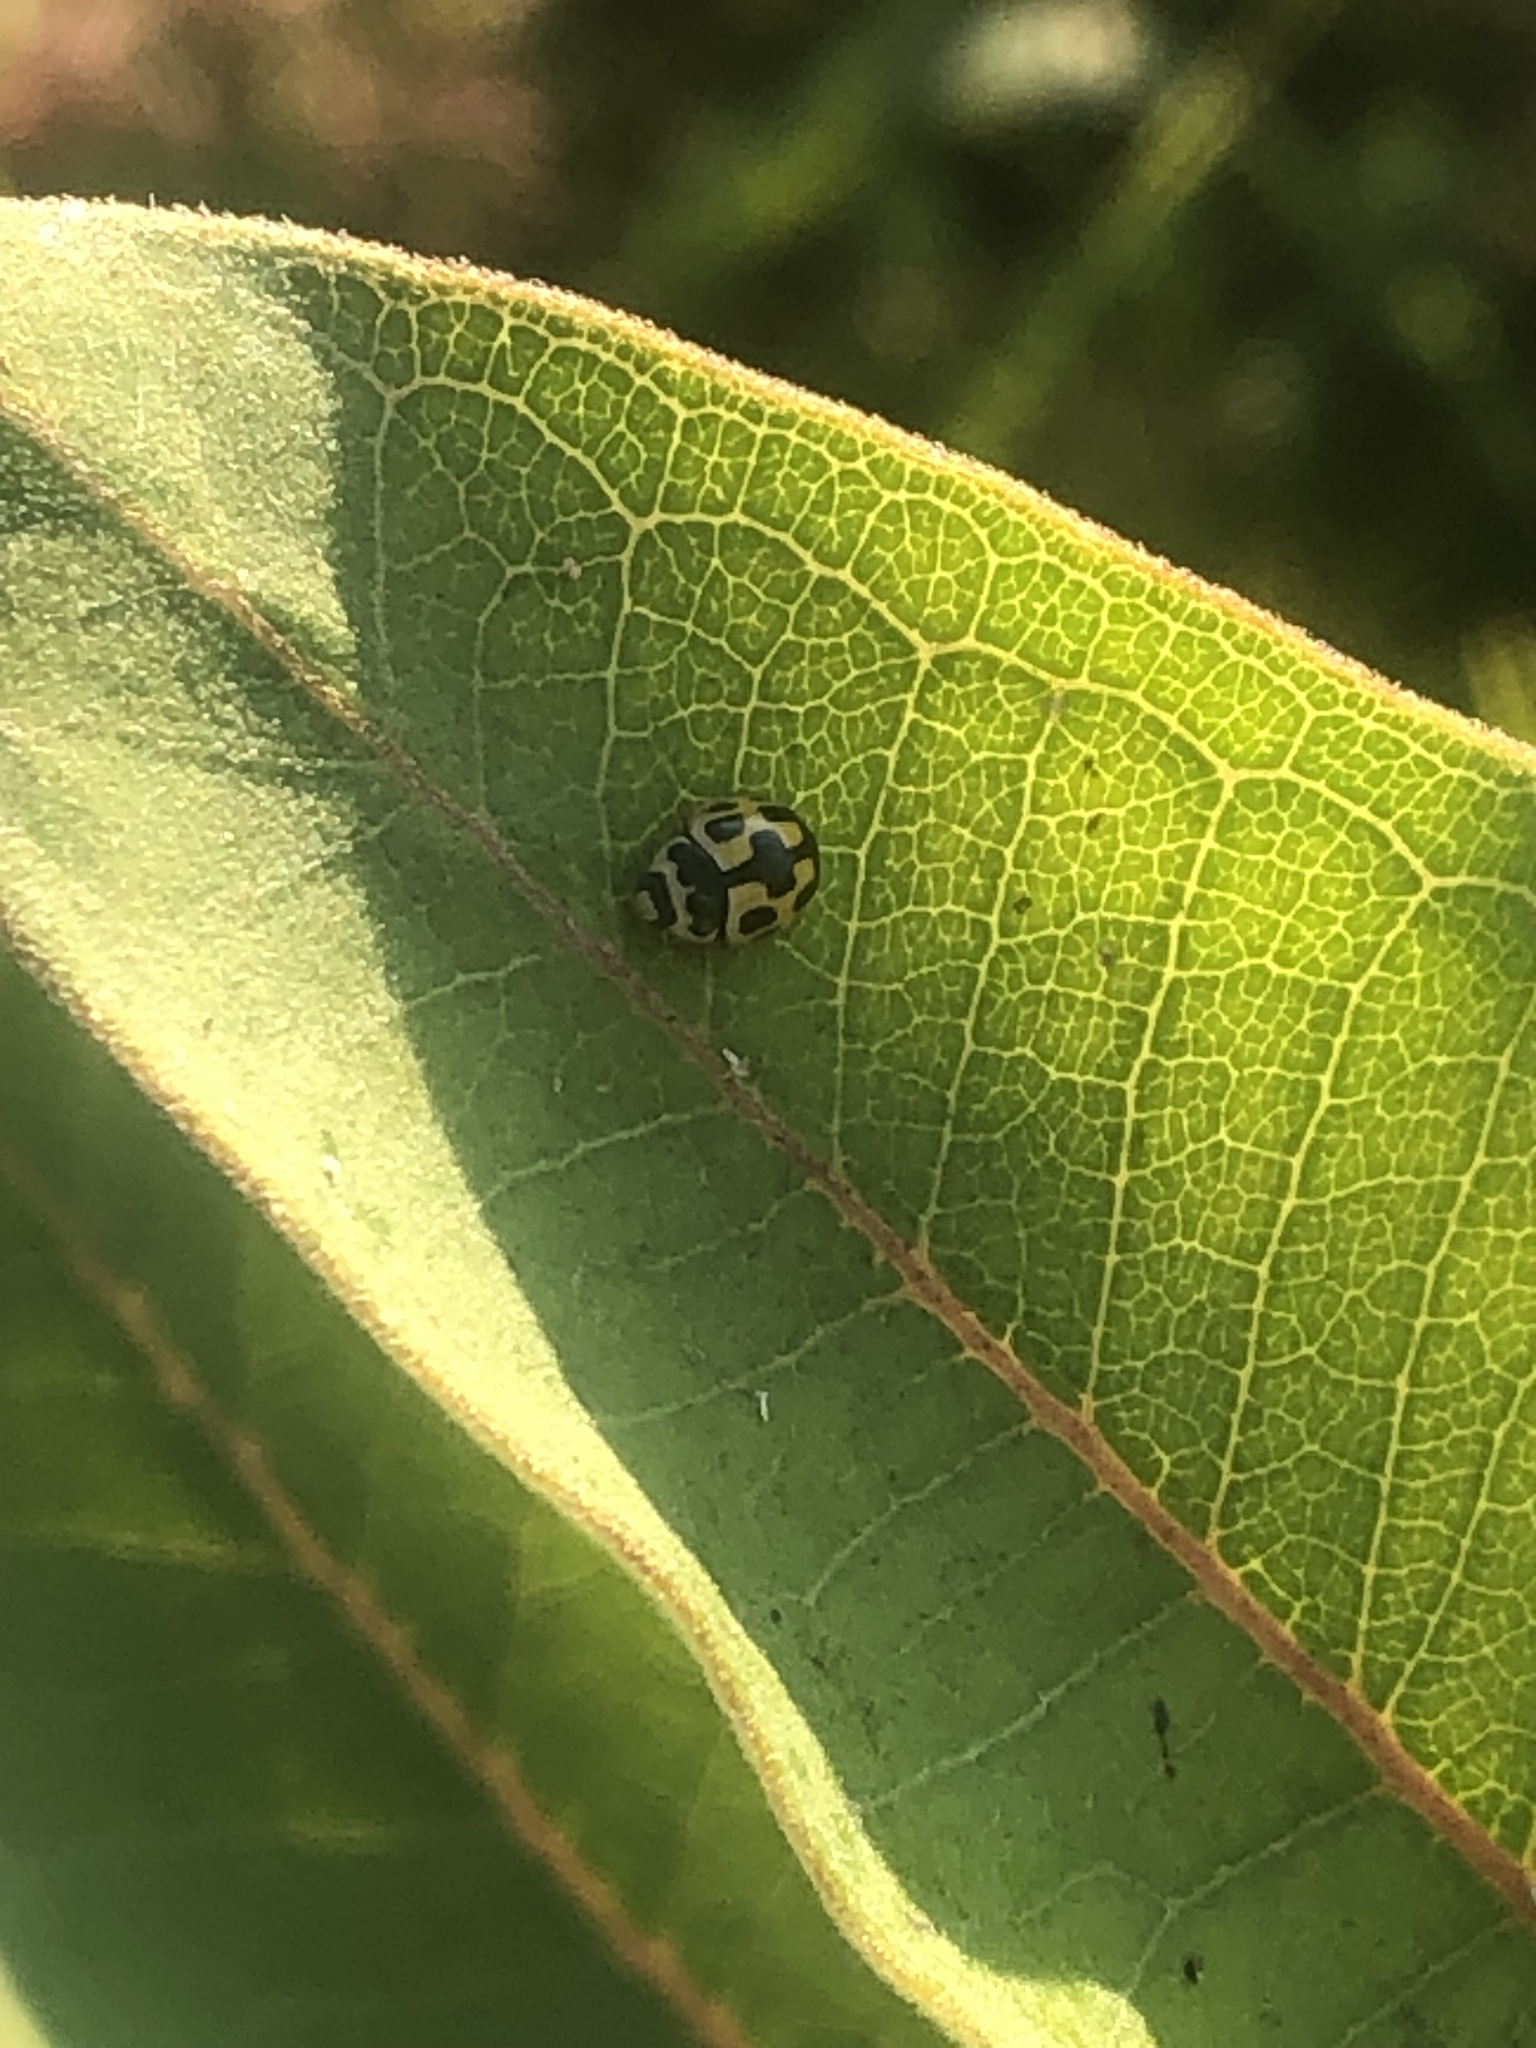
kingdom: Animalia
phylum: Arthropoda
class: Insecta
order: Coleoptera
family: Coccinellidae
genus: Propylaea
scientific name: Propylaea quatuordecimpunctata
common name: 14-spotted ladybird beetle
